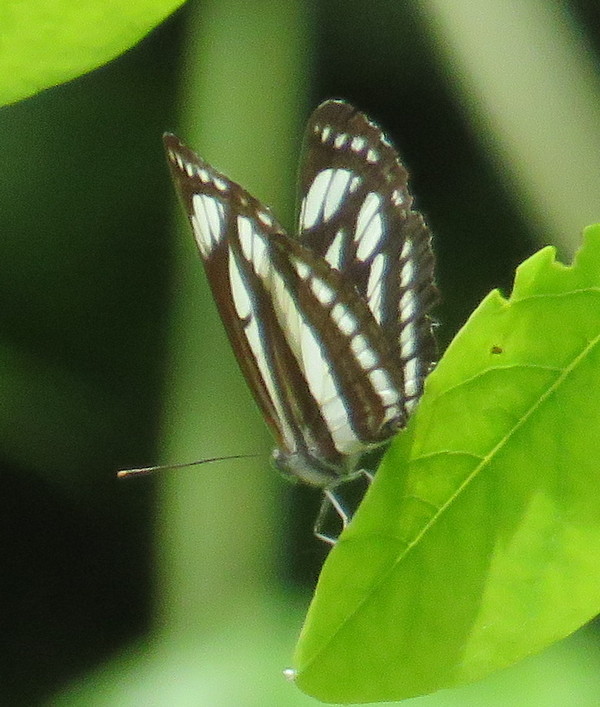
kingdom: Animalia
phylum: Arthropoda
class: Insecta
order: Lepidoptera
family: Nymphalidae
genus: Neptis
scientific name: Neptis sappho
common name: Common glider
